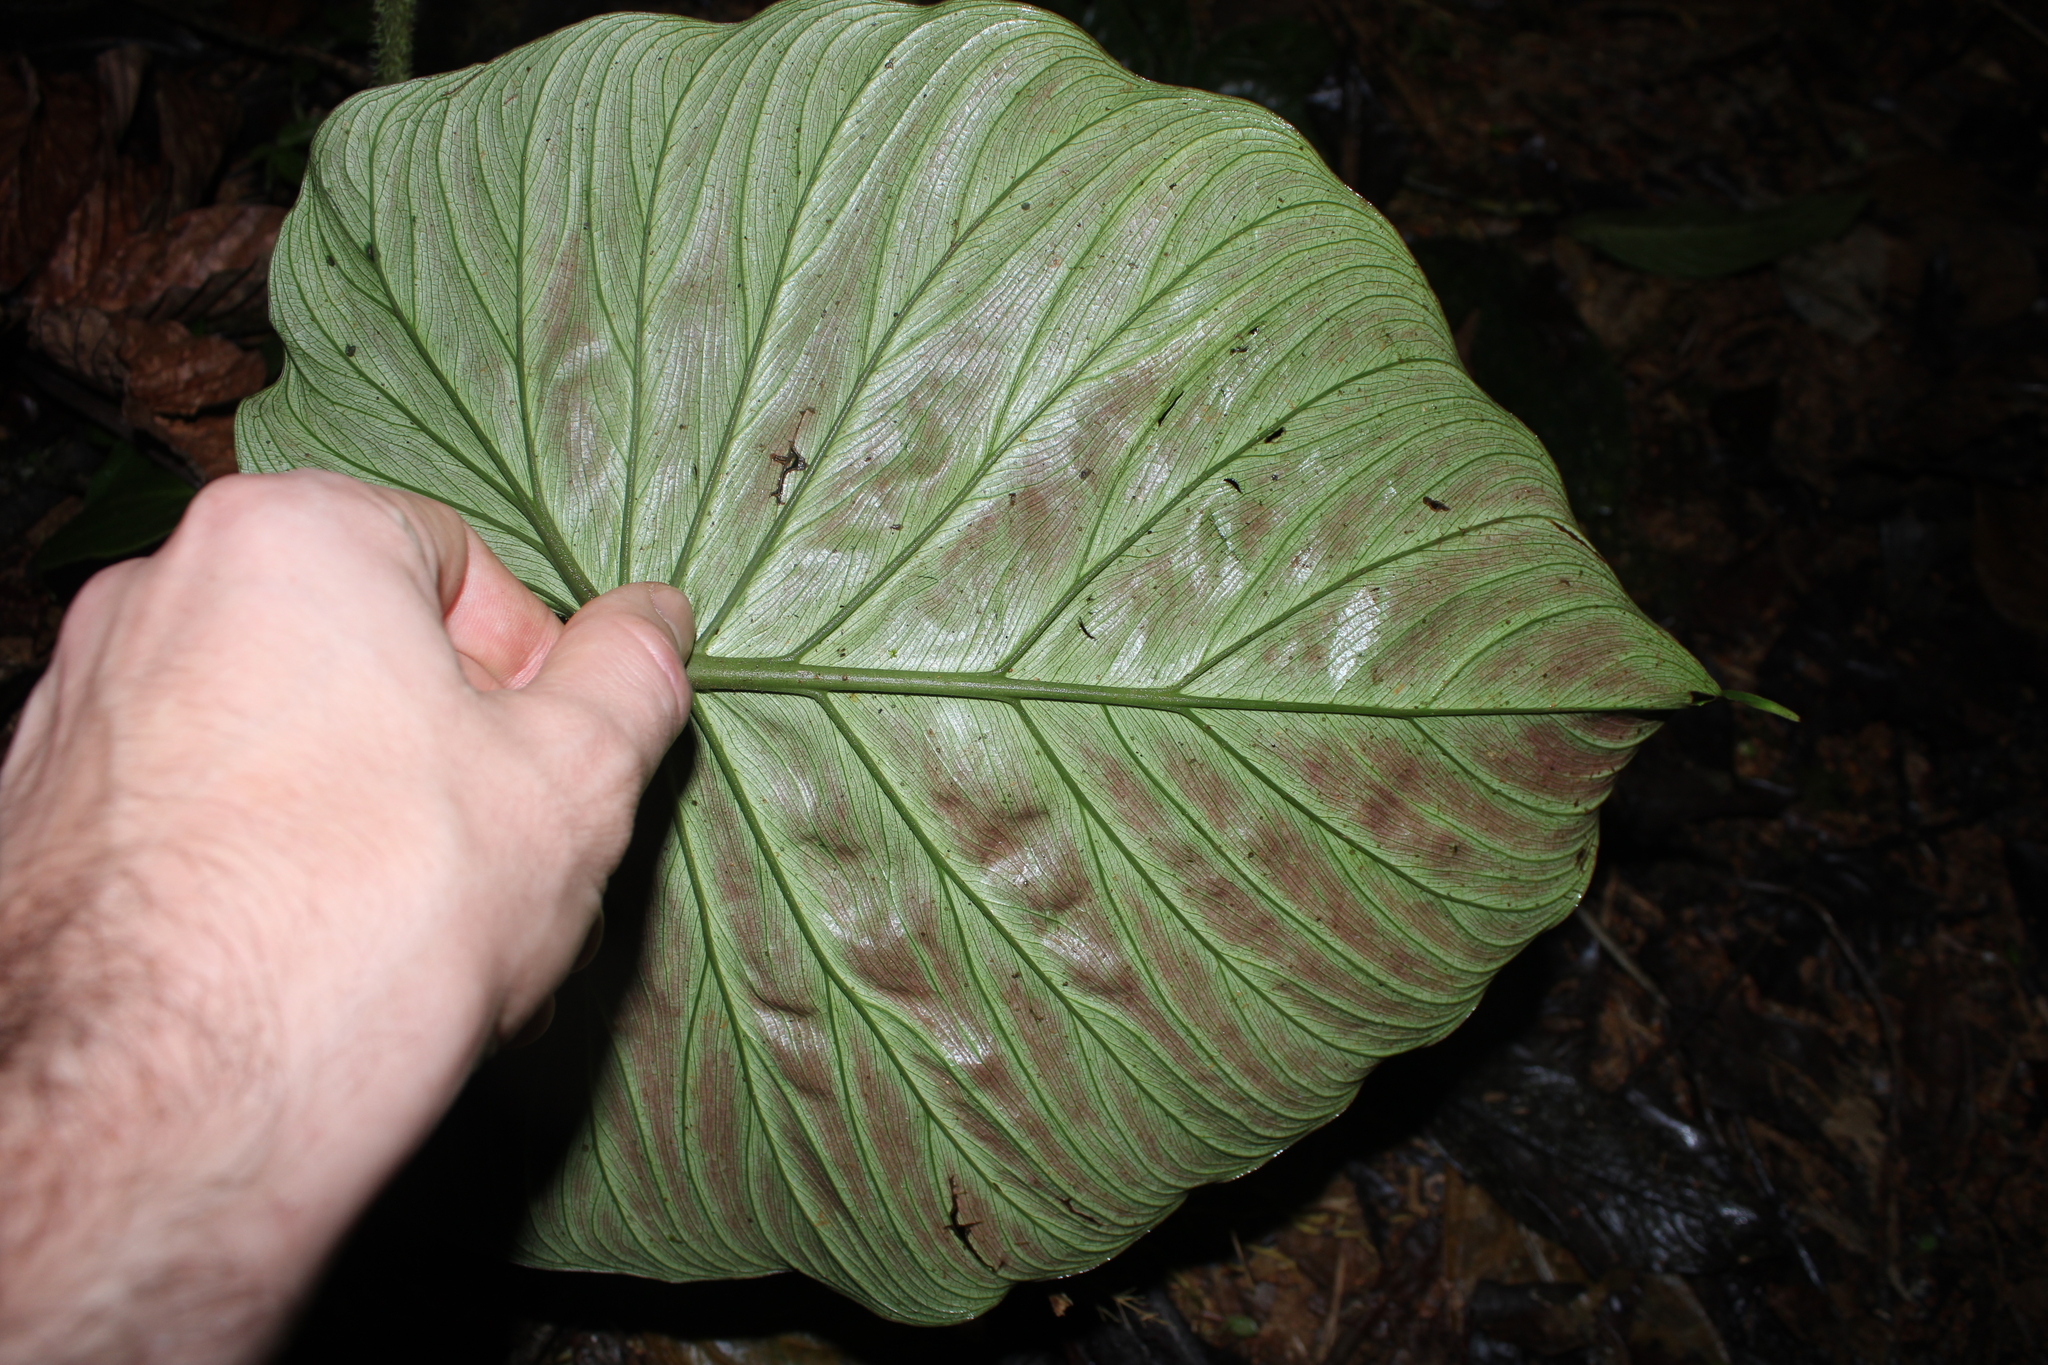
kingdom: Plantae
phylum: Tracheophyta
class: Liliopsida
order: Alismatales
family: Araceae
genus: Philodendron
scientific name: Philodendron verrucosum
